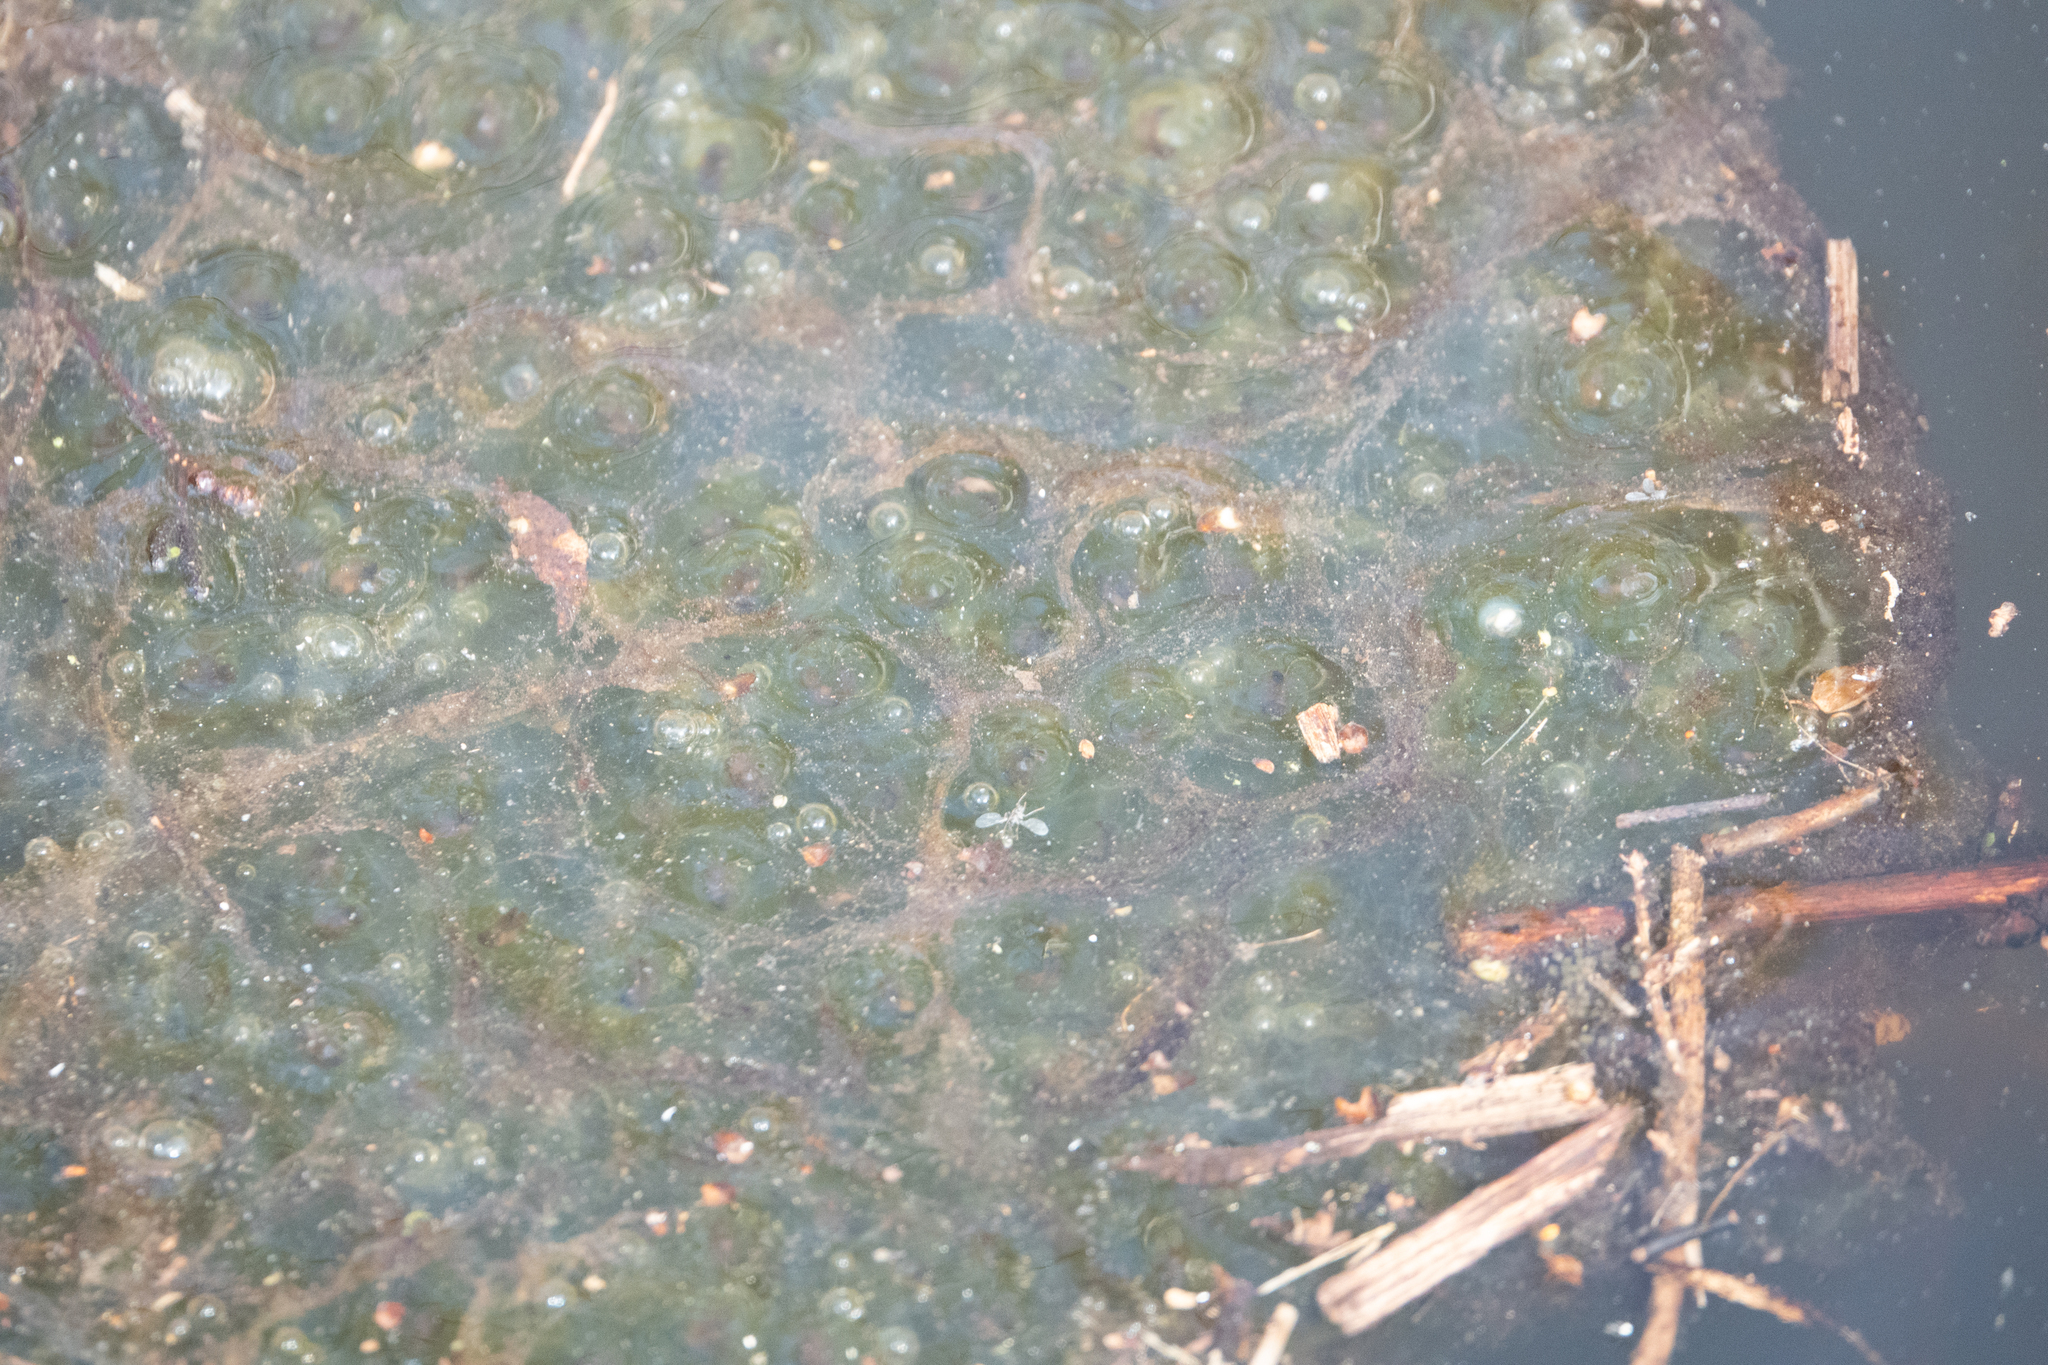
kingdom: Animalia
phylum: Chordata
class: Amphibia
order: Anura
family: Ranidae
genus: Rana
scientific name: Rana dalmatina
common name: Agile frog
